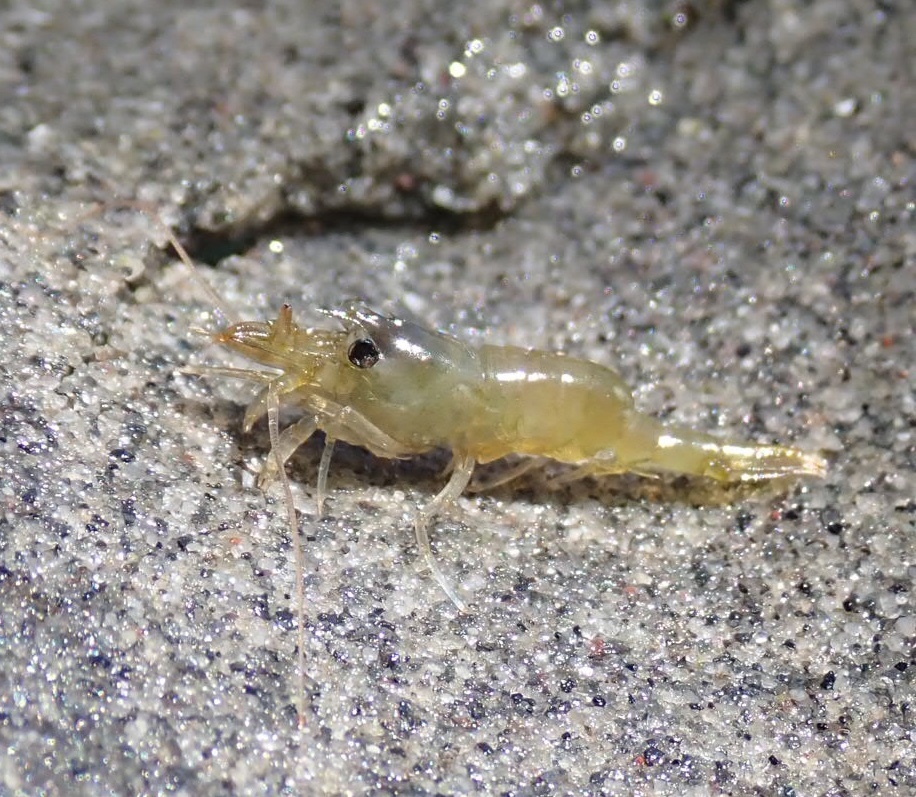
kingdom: Animalia
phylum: Arthropoda
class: Malacostraca
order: Decapoda
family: Thoridae
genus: Heptacarpus
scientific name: Heptacarpus brevirostris
